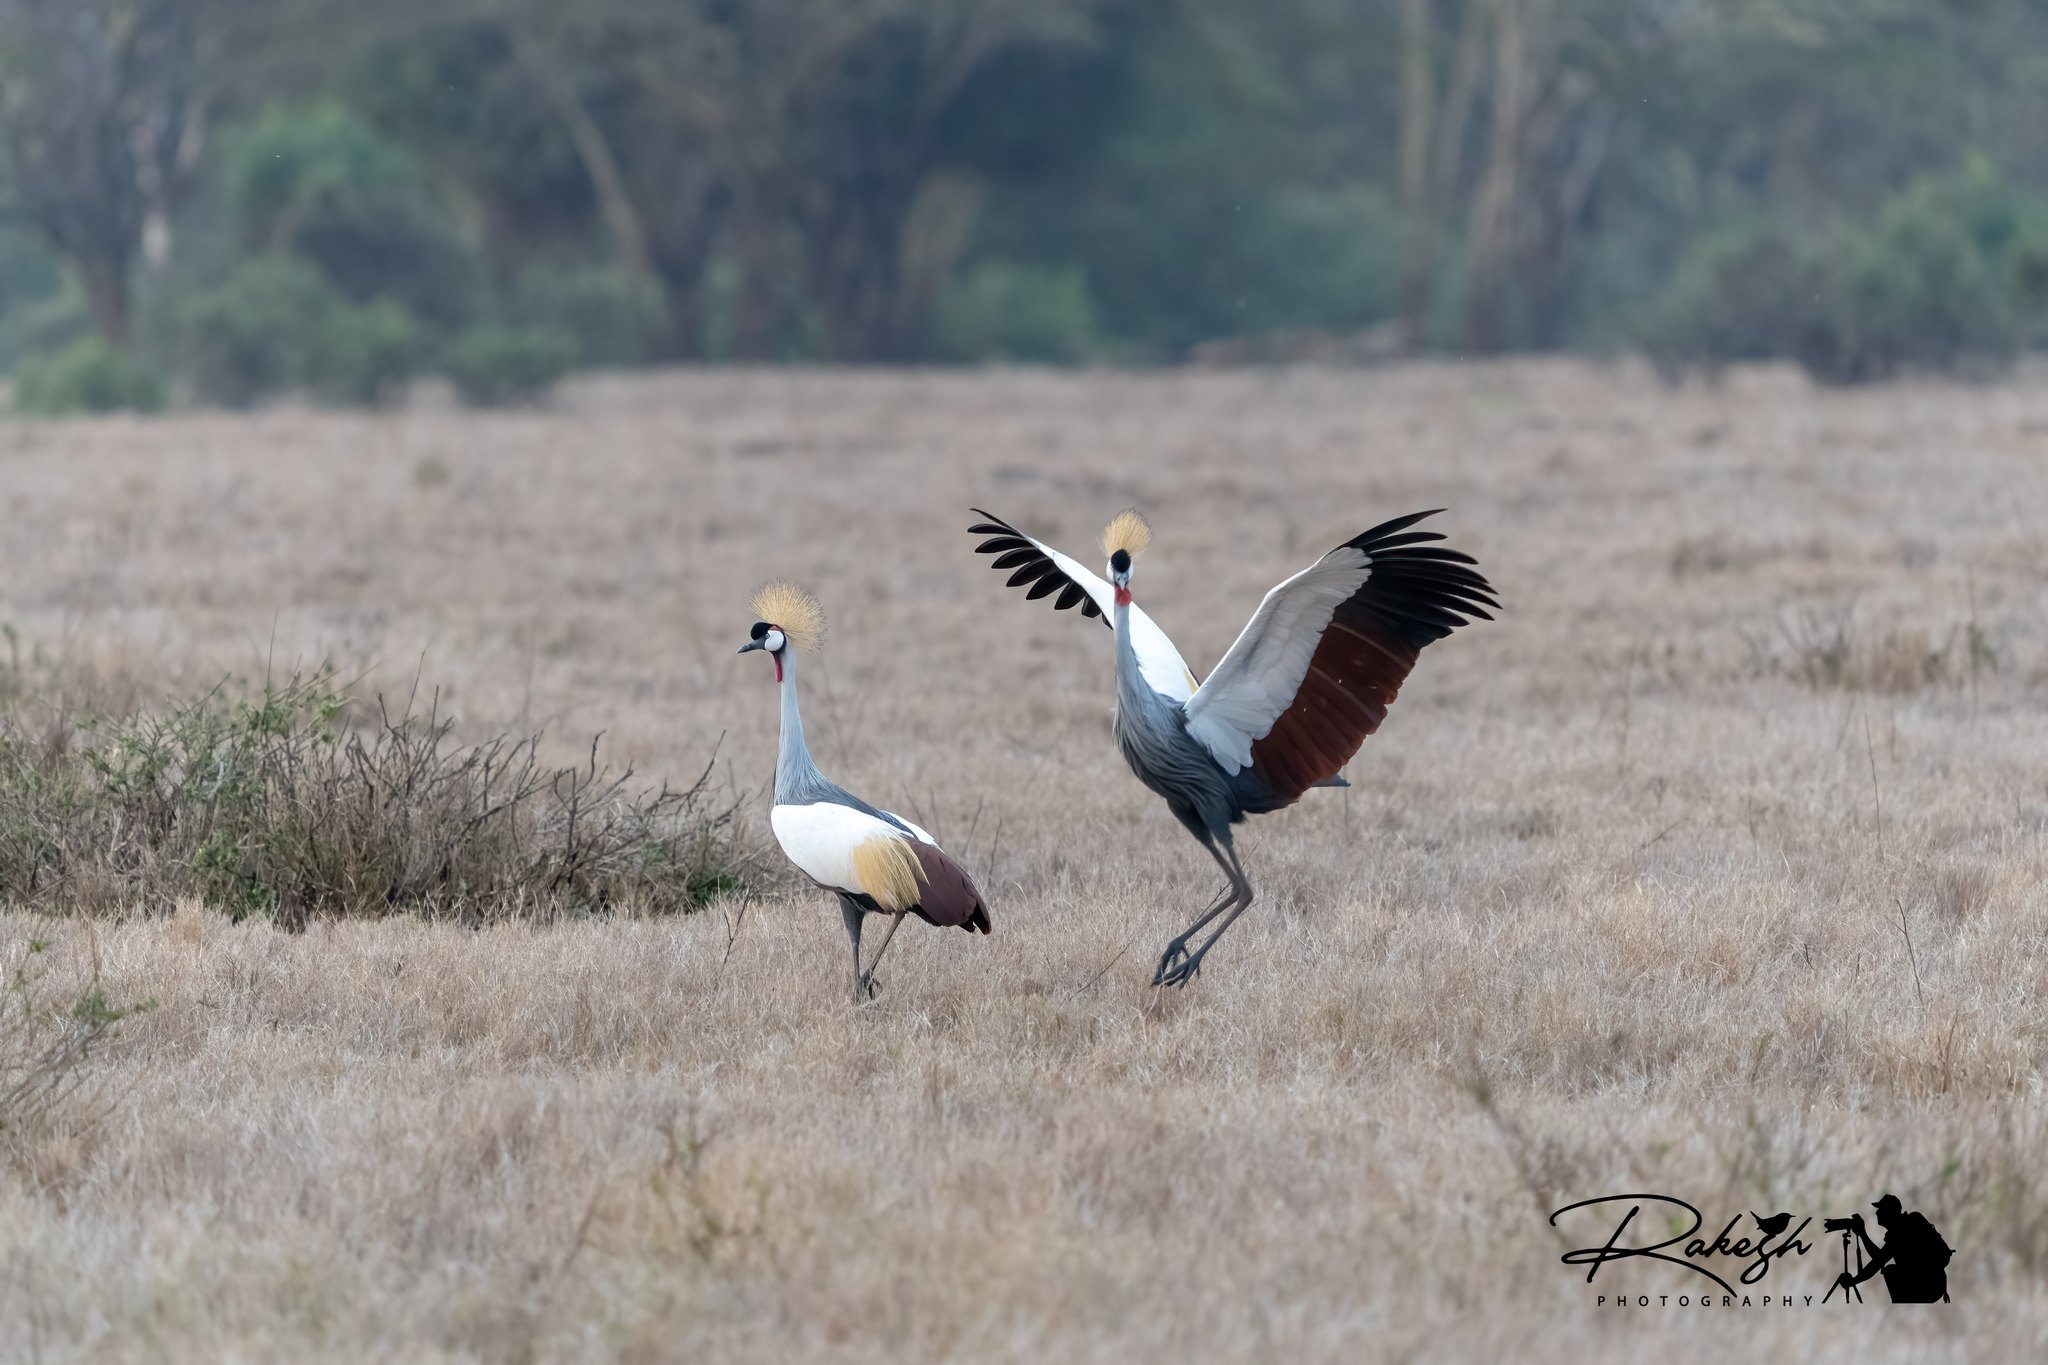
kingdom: Animalia
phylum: Chordata
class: Aves
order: Gruiformes
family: Gruidae
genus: Balearica
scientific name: Balearica regulorum
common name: Grey crowned crane
